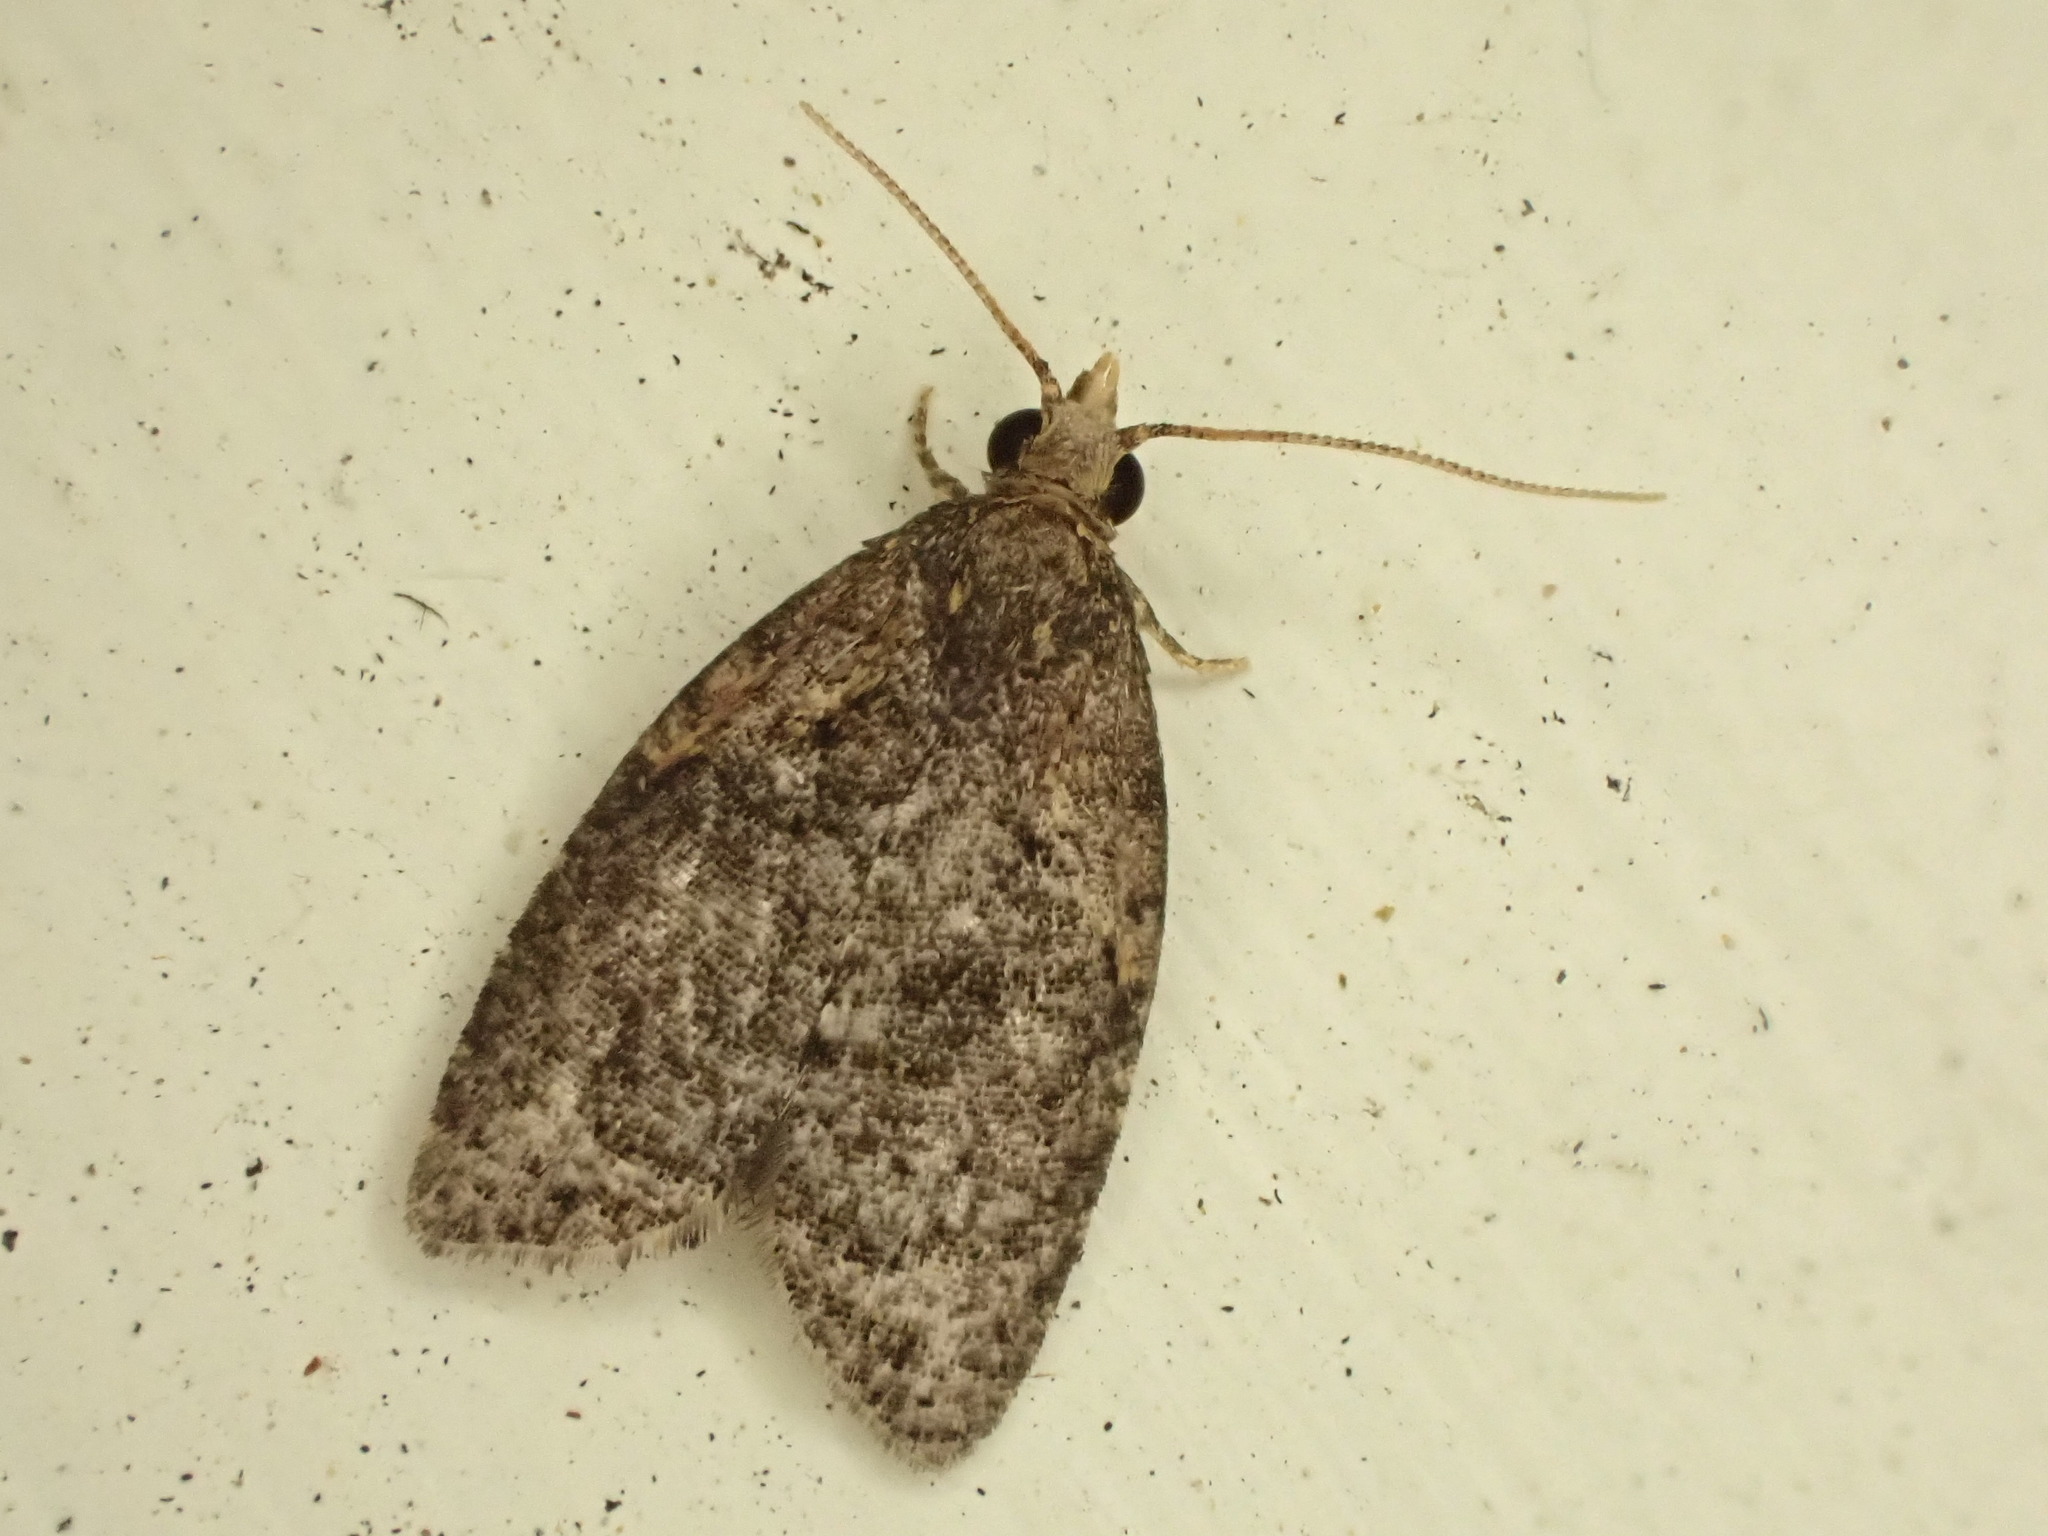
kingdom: Animalia
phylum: Arthropoda
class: Insecta
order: Lepidoptera
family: Tortricidae
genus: Capua
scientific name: Capua intractana
